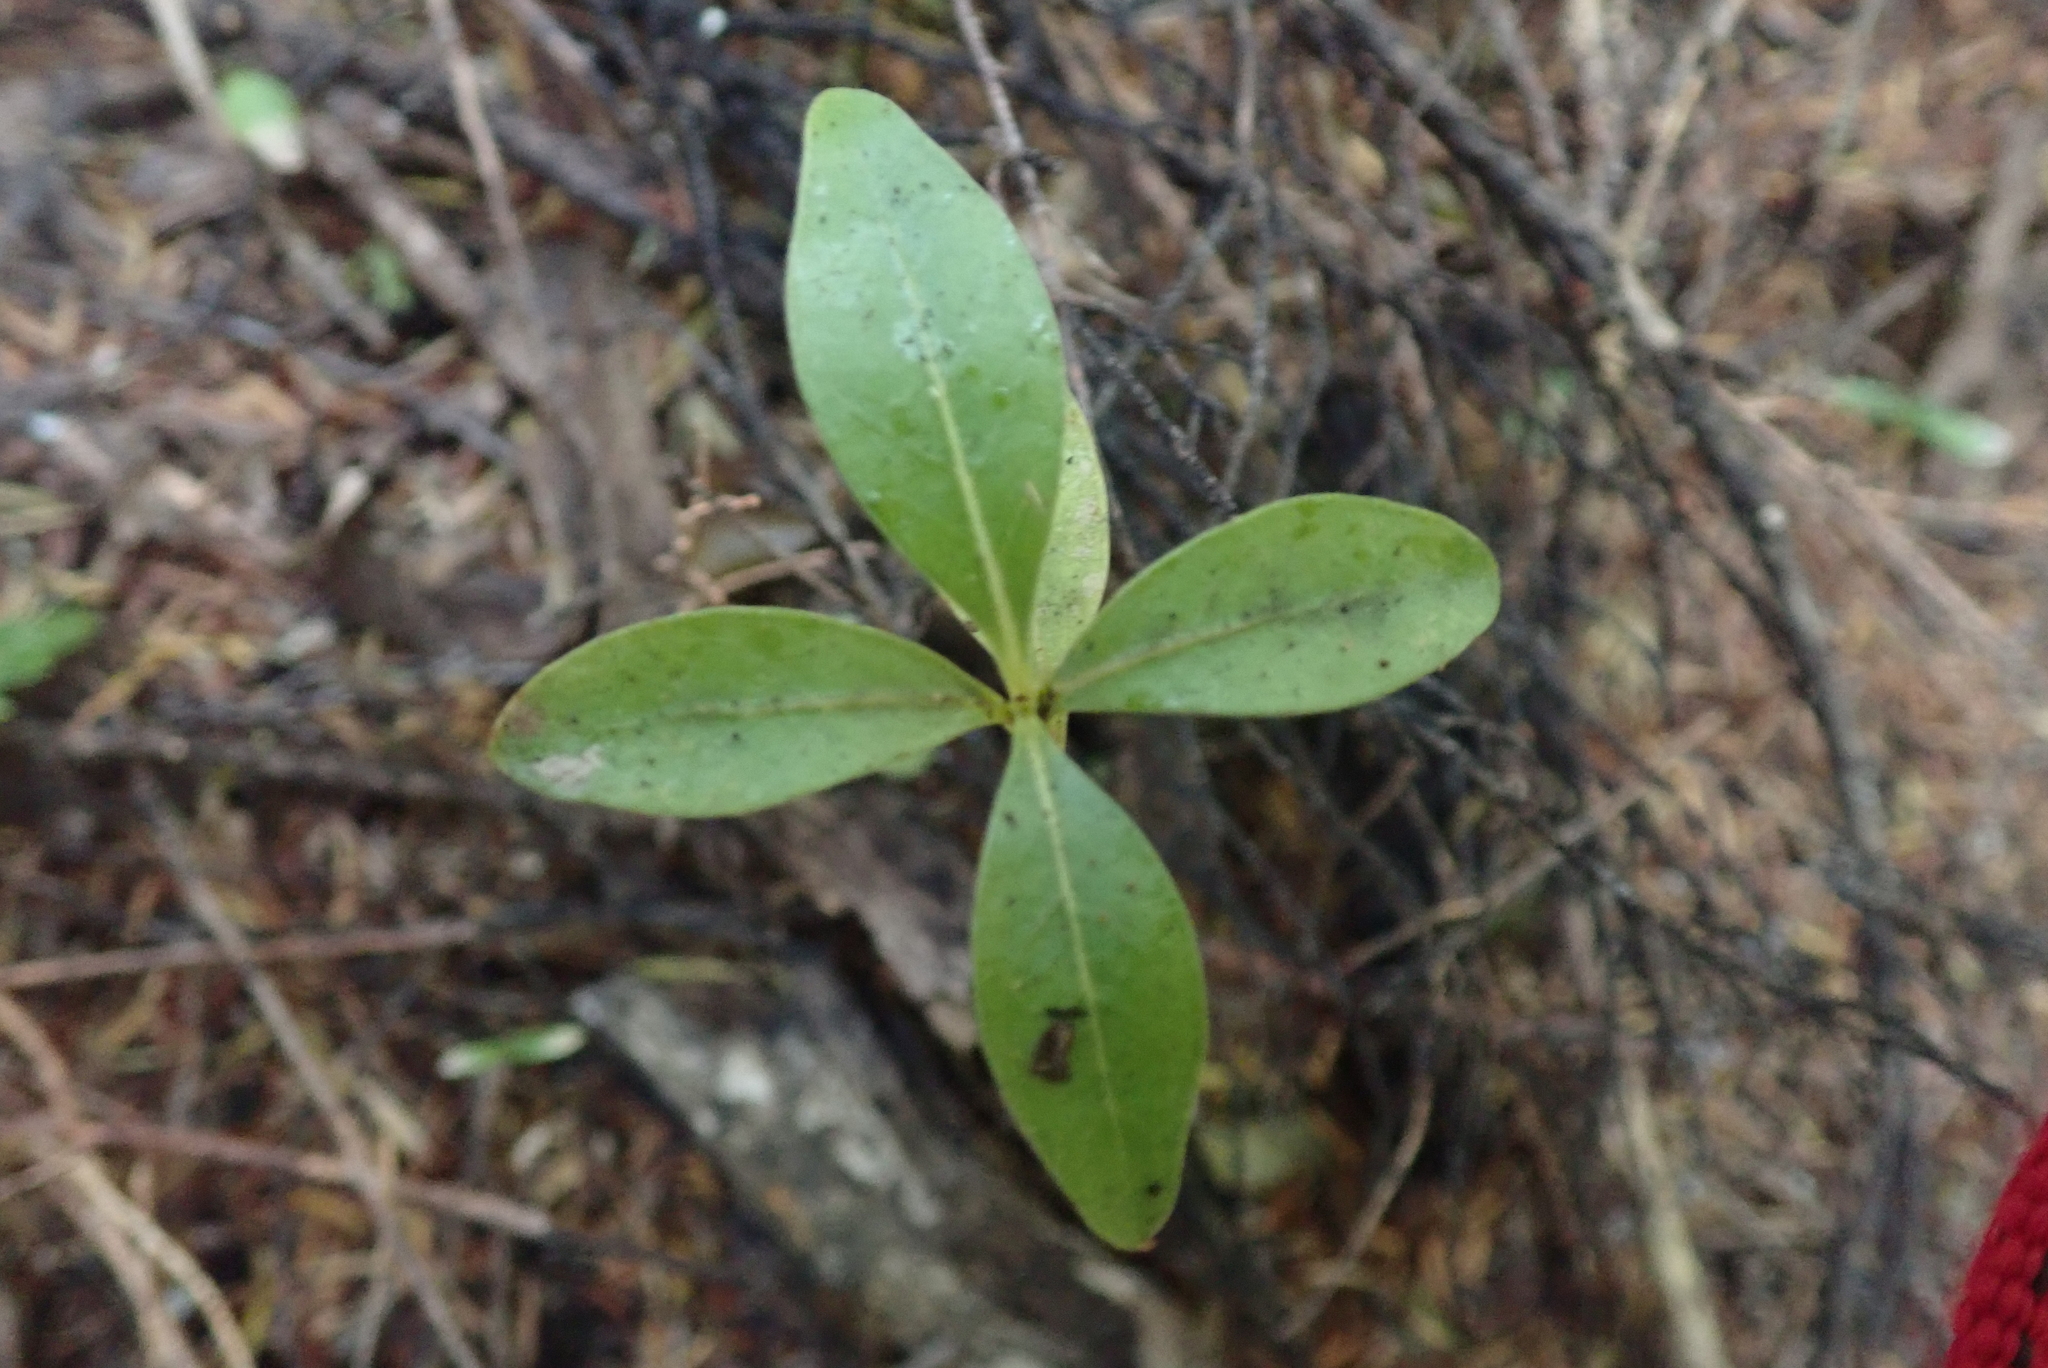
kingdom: Plantae
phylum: Tracheophyta
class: Magnoliopsida
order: Gentianales
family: Rubiaceae
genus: Coprosma
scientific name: Coprosma lucida
